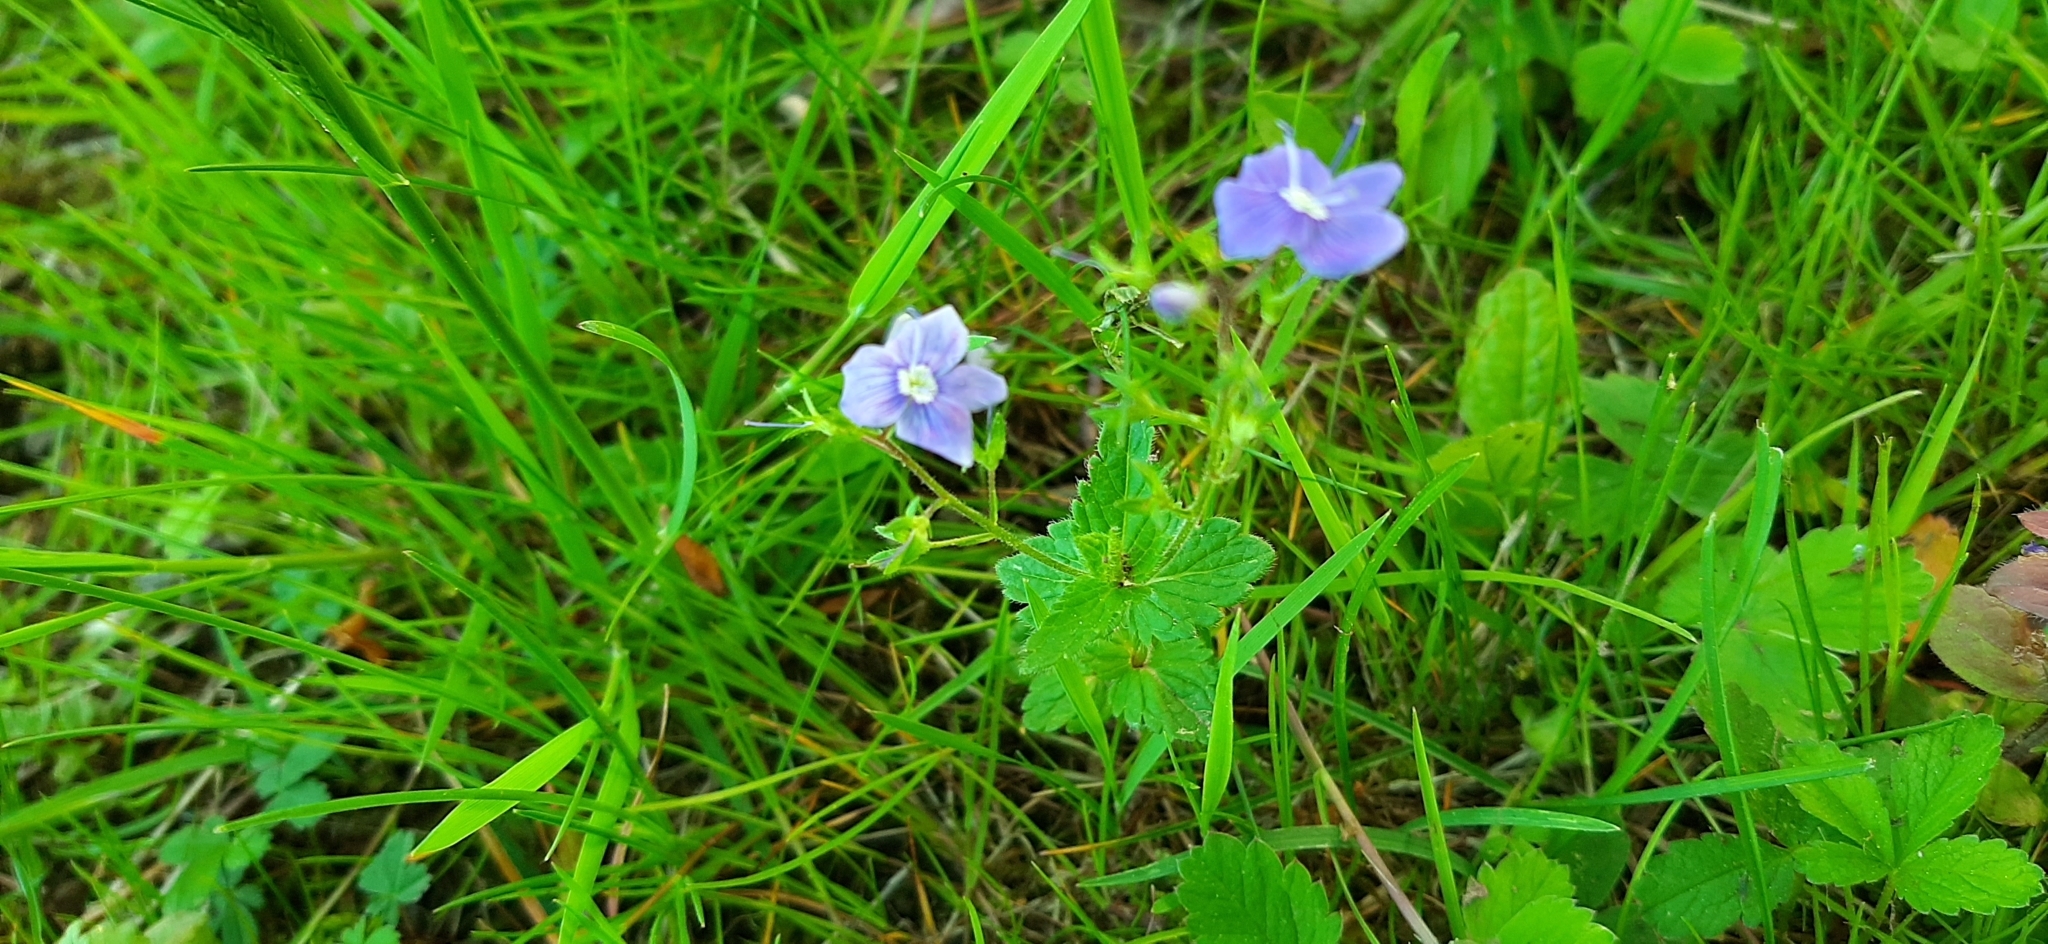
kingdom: Plantae
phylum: Tracheophyta
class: Magnoliopsida
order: Lamiales
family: Plantaginaceae
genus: Veronica
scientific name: Veronica chamaedrys
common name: Germander speedwell
